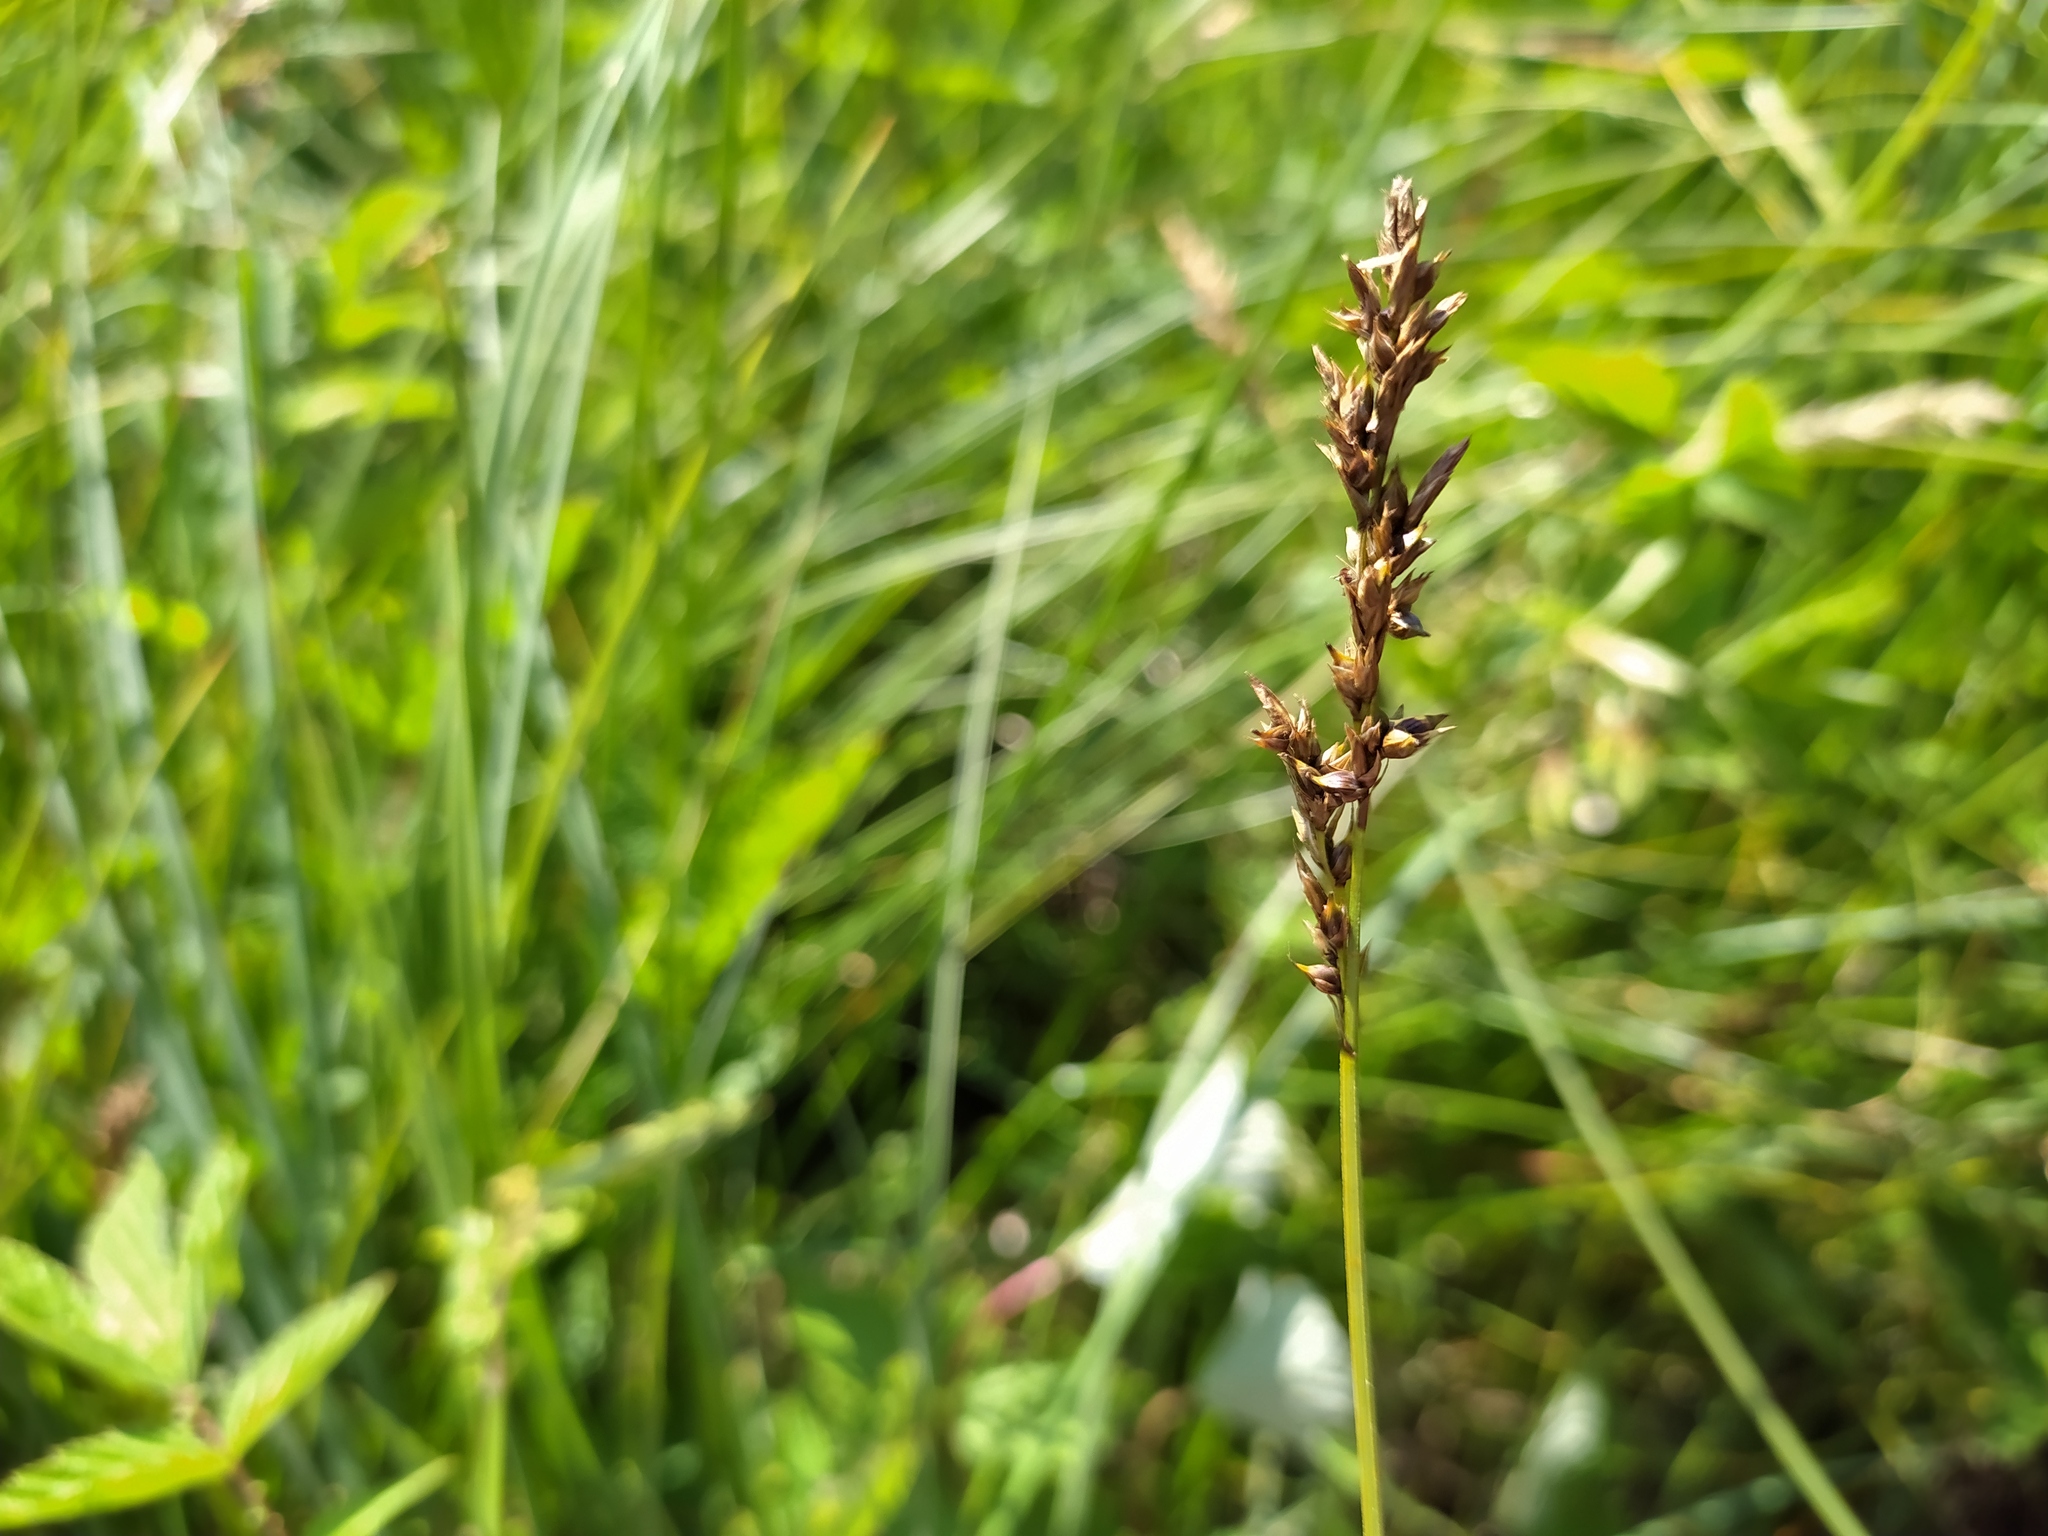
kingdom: Plantae
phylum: Tracheophyta
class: Liliopsida
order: Poales
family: Cyperaceae
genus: Carex
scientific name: Carex appropinquata
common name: Fibrous tussock-sedge
